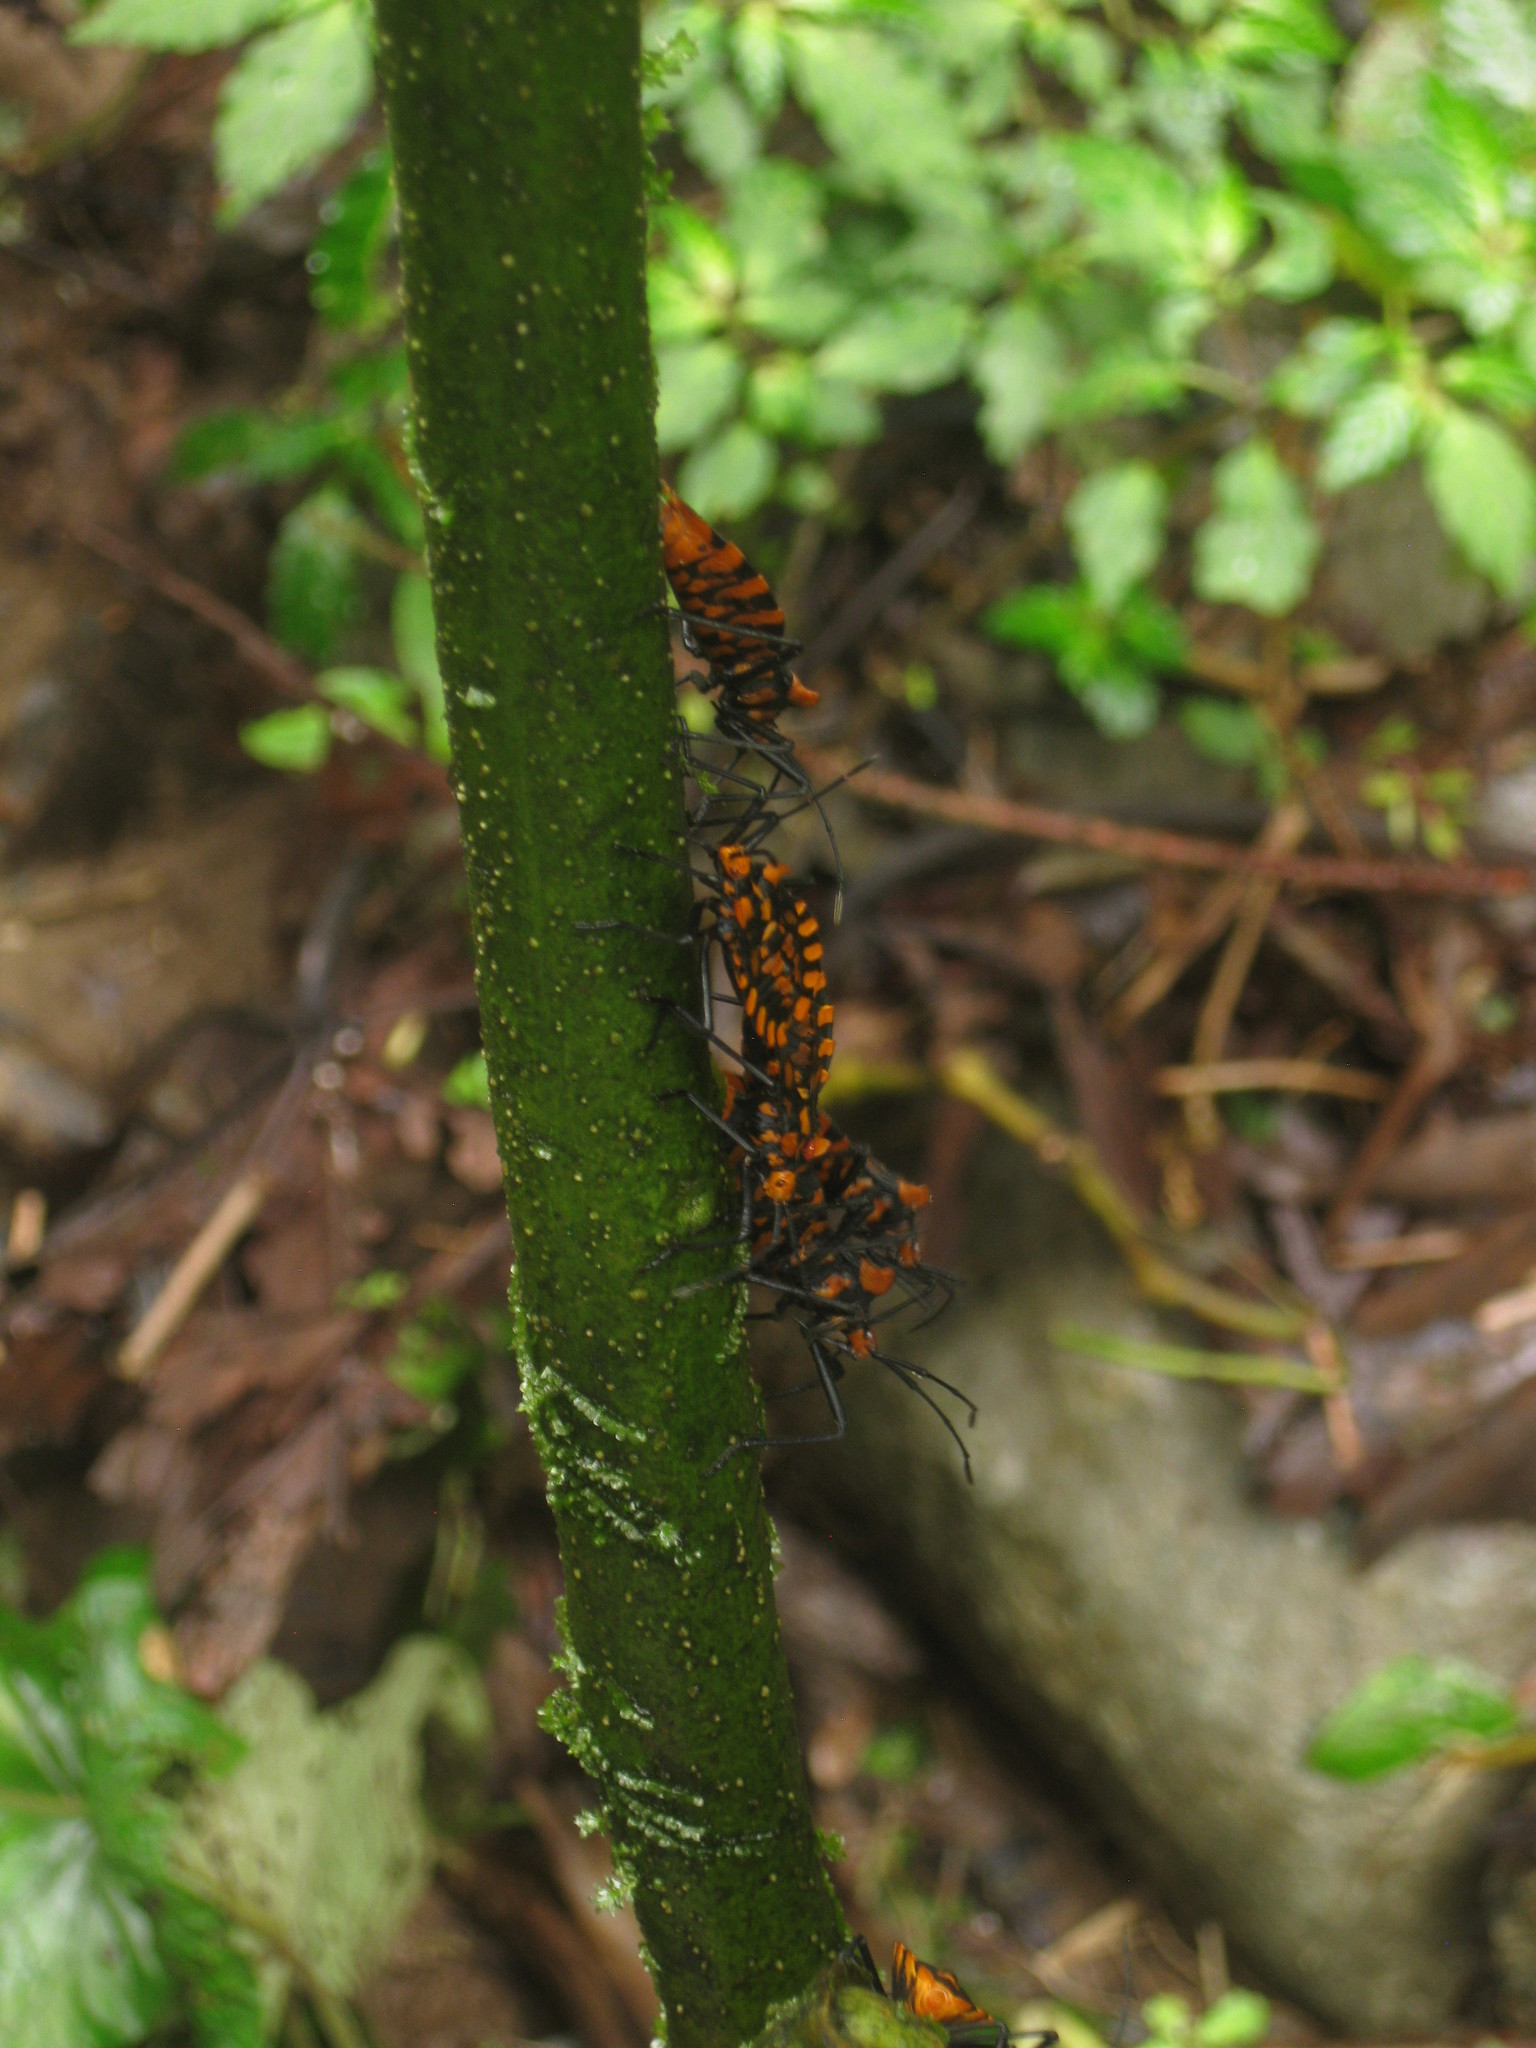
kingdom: Animalia
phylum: Arthropoda
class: Insecta
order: Hemiptera
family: Coreidae
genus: Spartocera
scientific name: Spartocera pantomima
